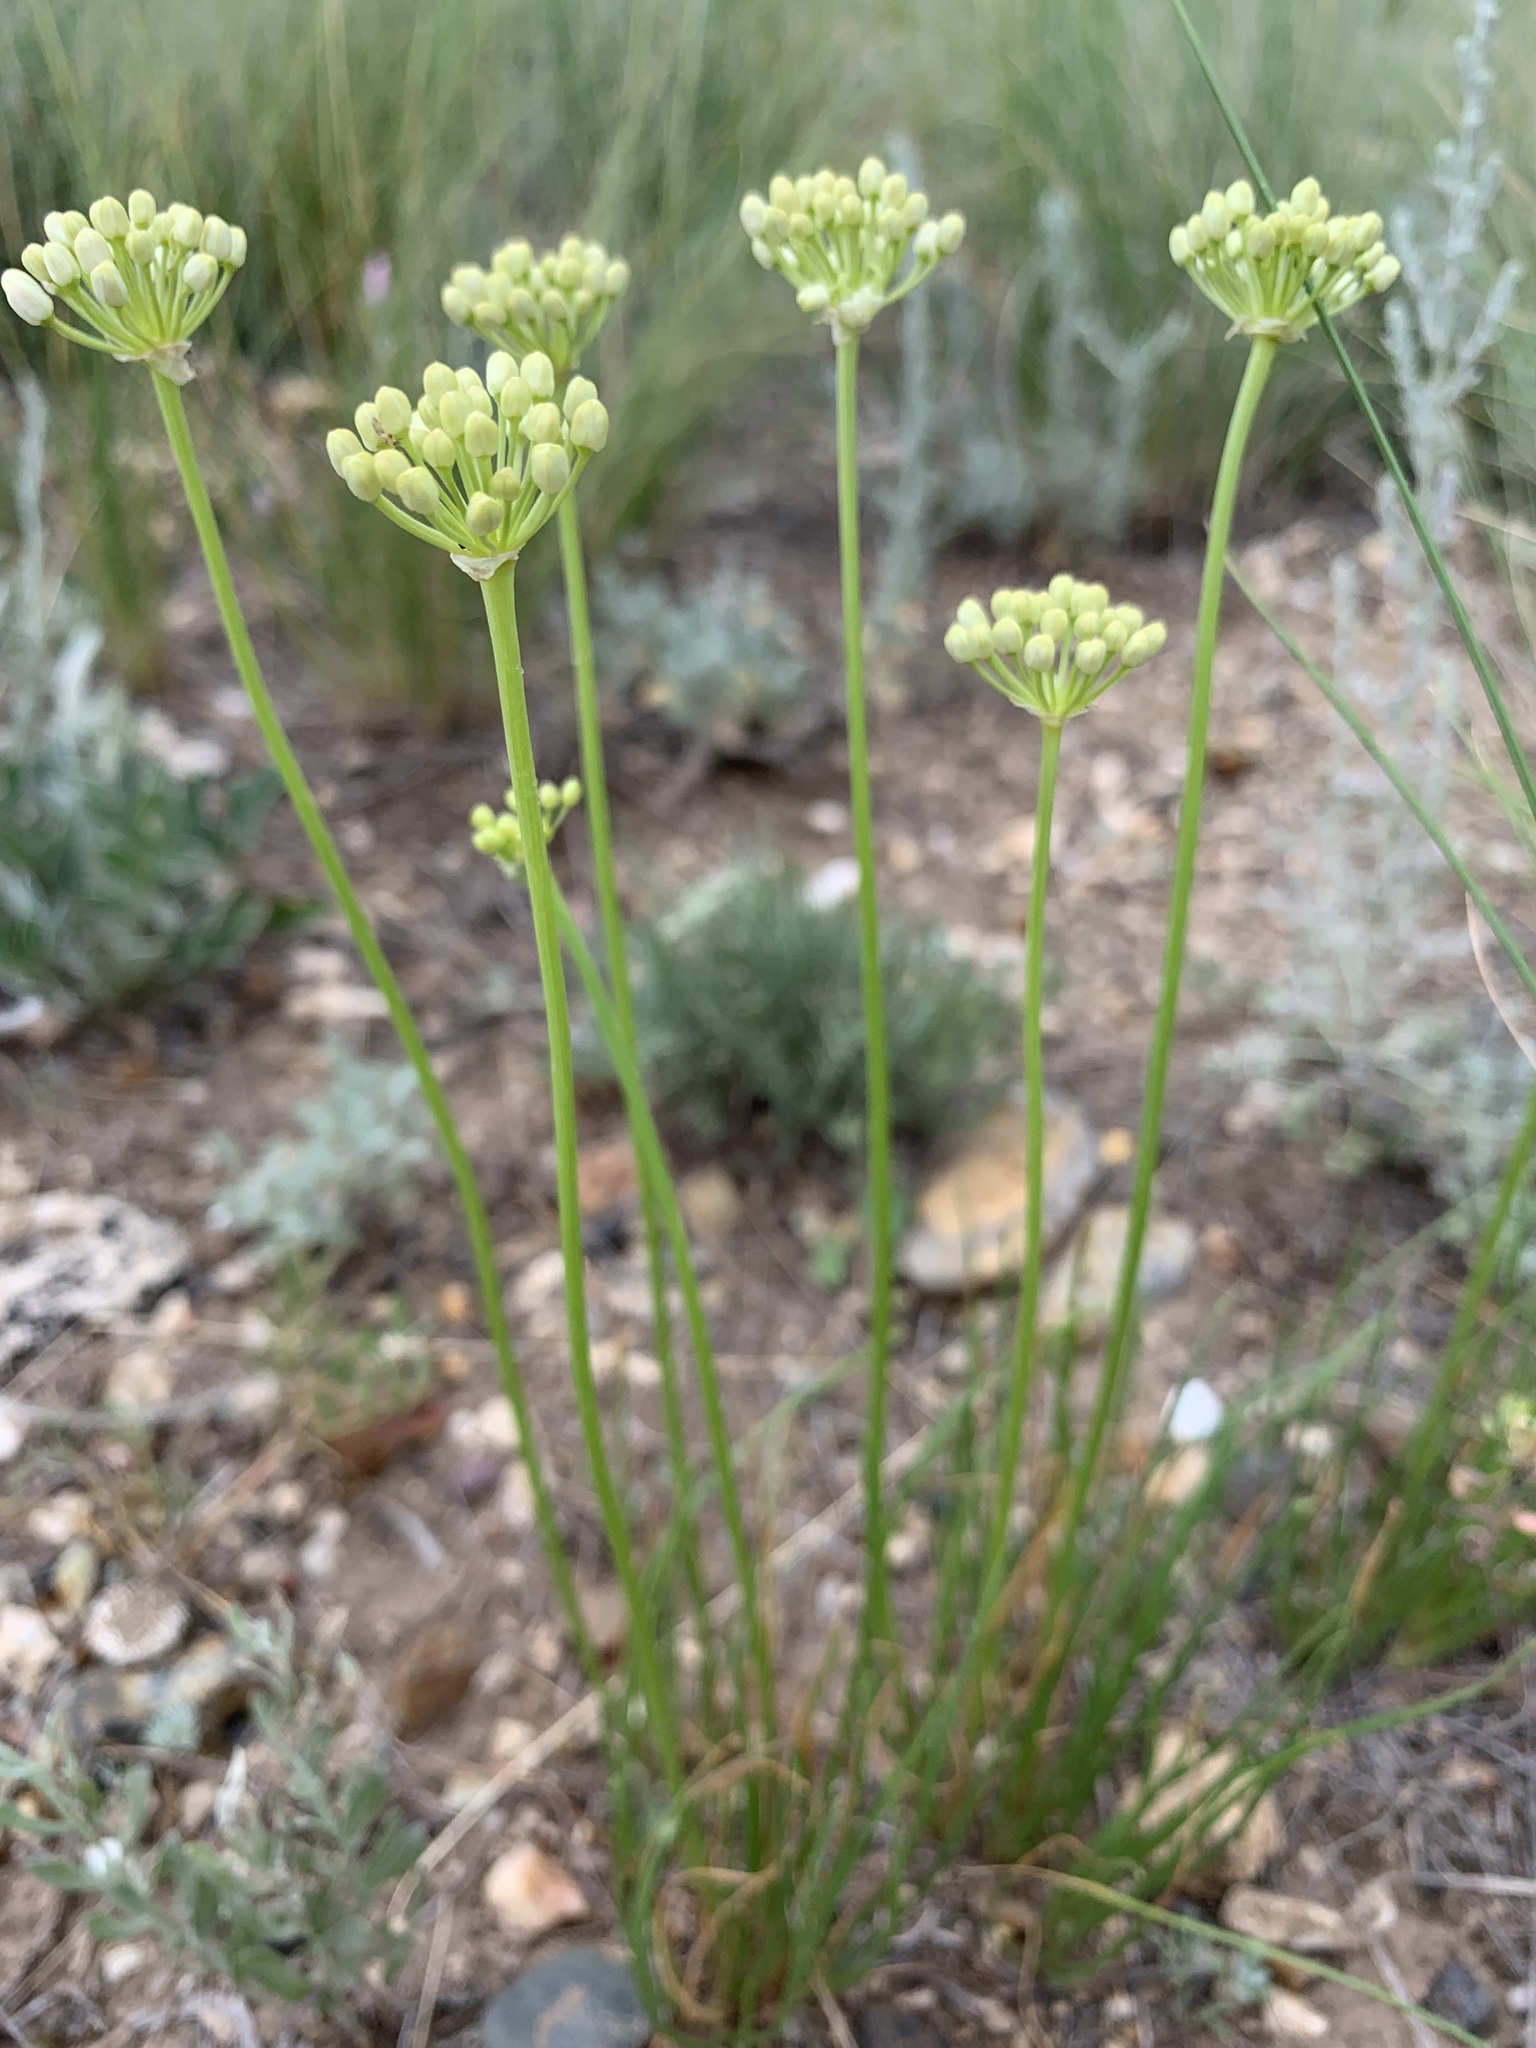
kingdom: Plantae
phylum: Tracheophyta
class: Liliopsida
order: Asparagales
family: Amaryllidaceae
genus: Allium
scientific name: Allium flavescens
